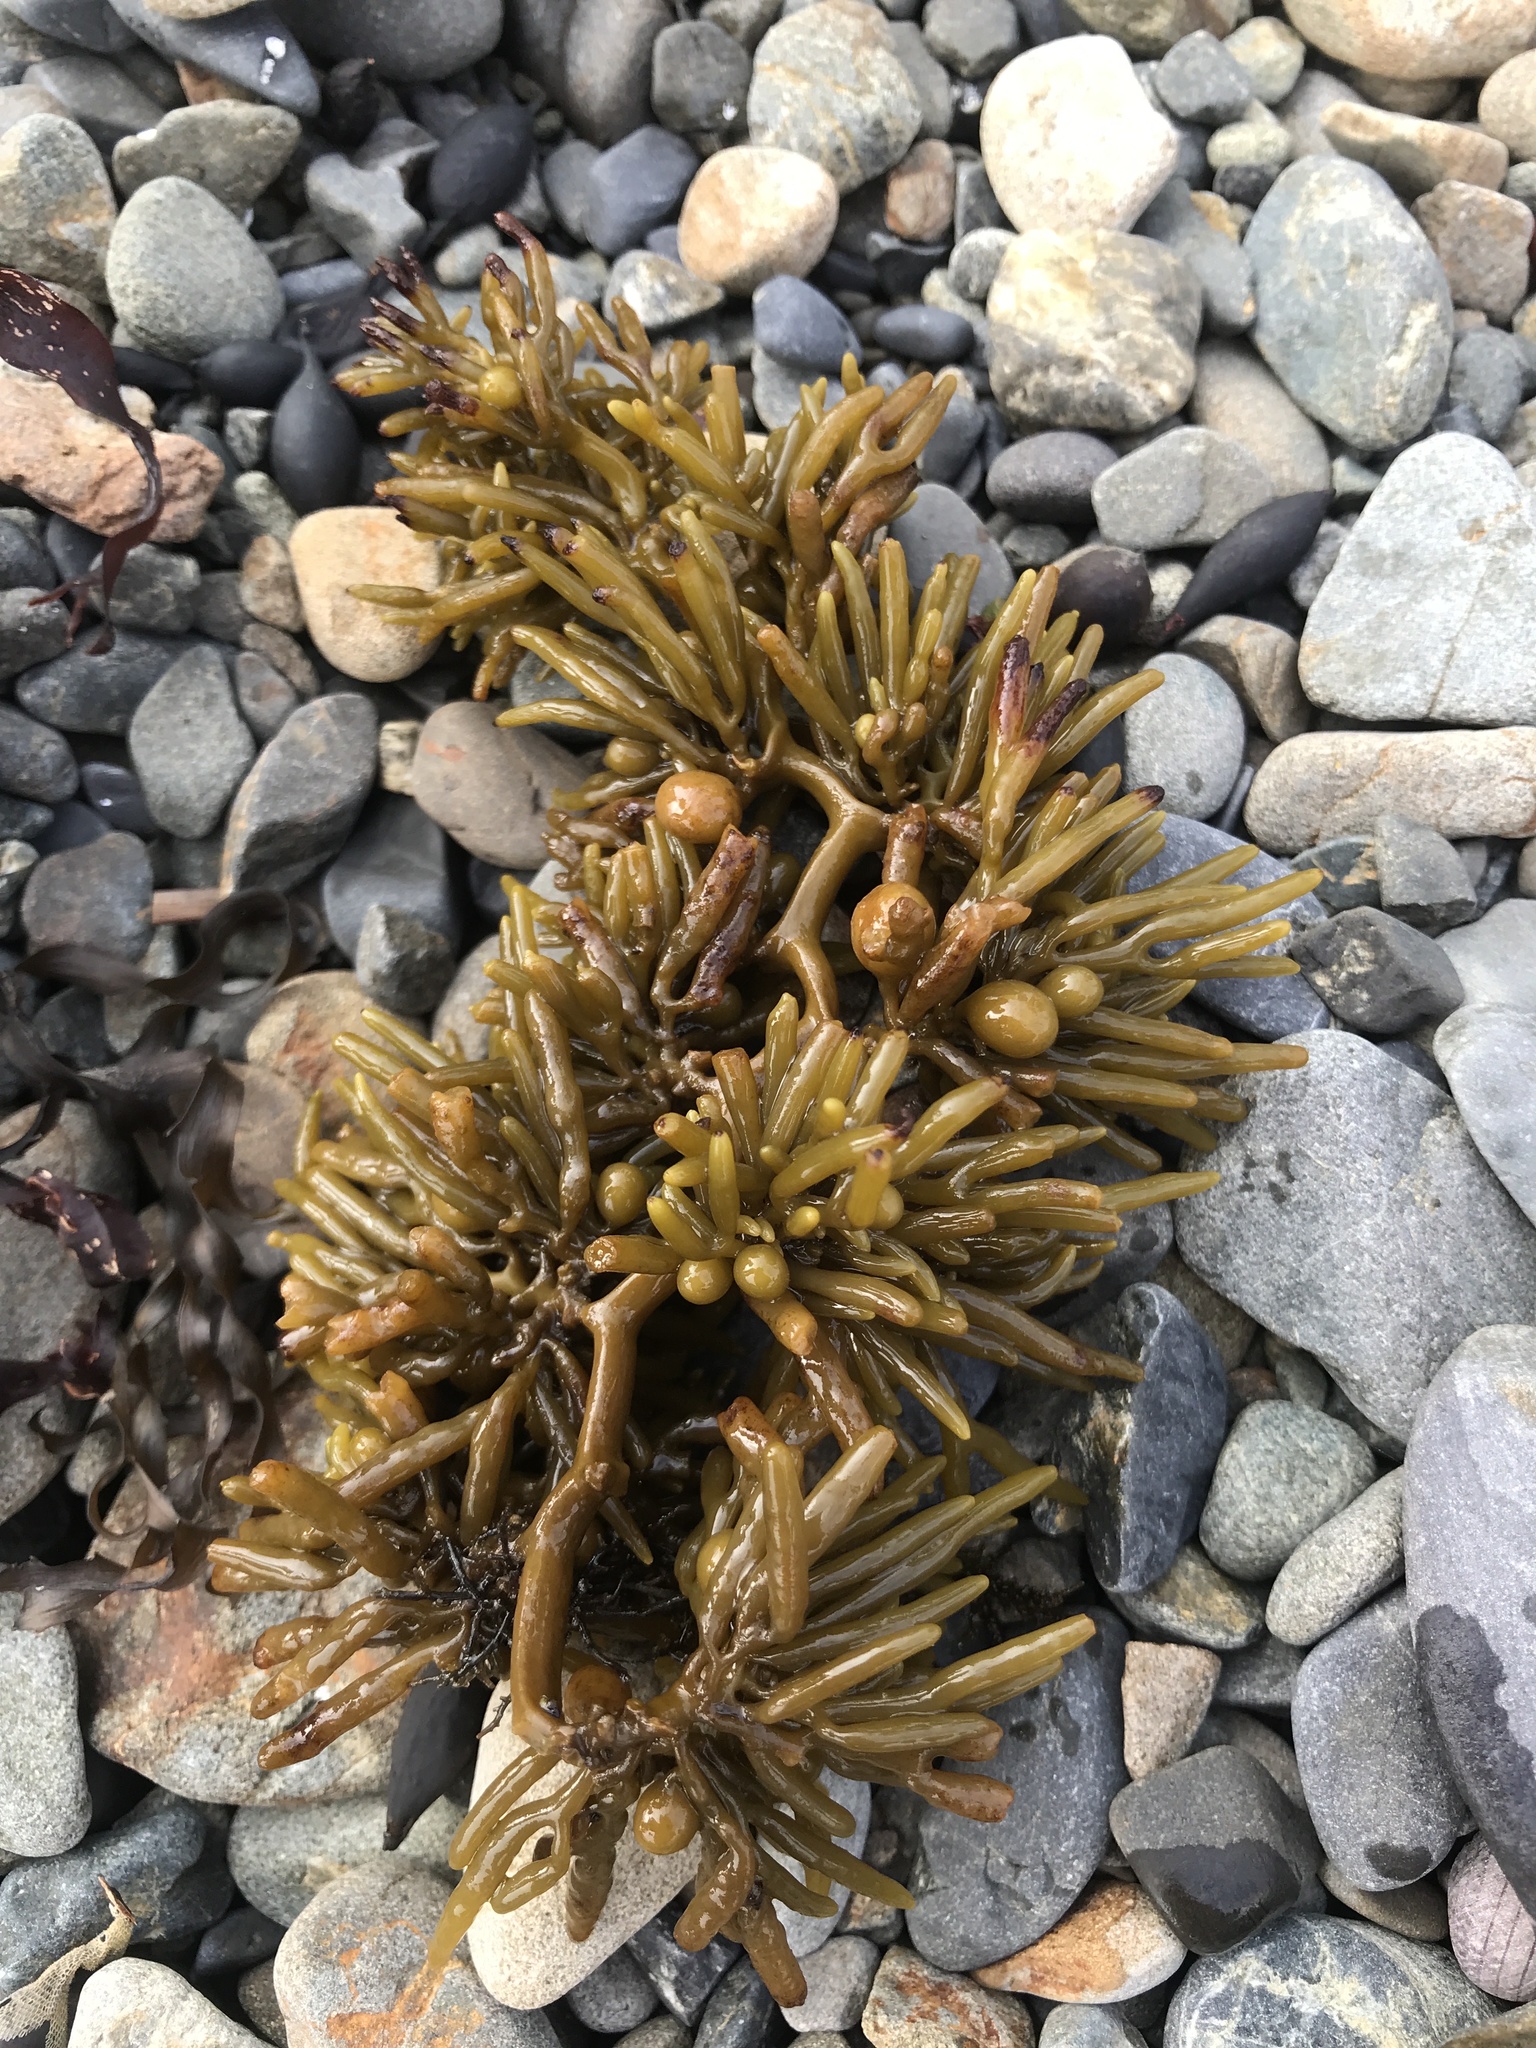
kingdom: Chromista
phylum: Ochrophyta
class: Phaeophyceae
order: Fucales
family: Sargassaceae
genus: Cystophora
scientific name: Cystophora torulosa
